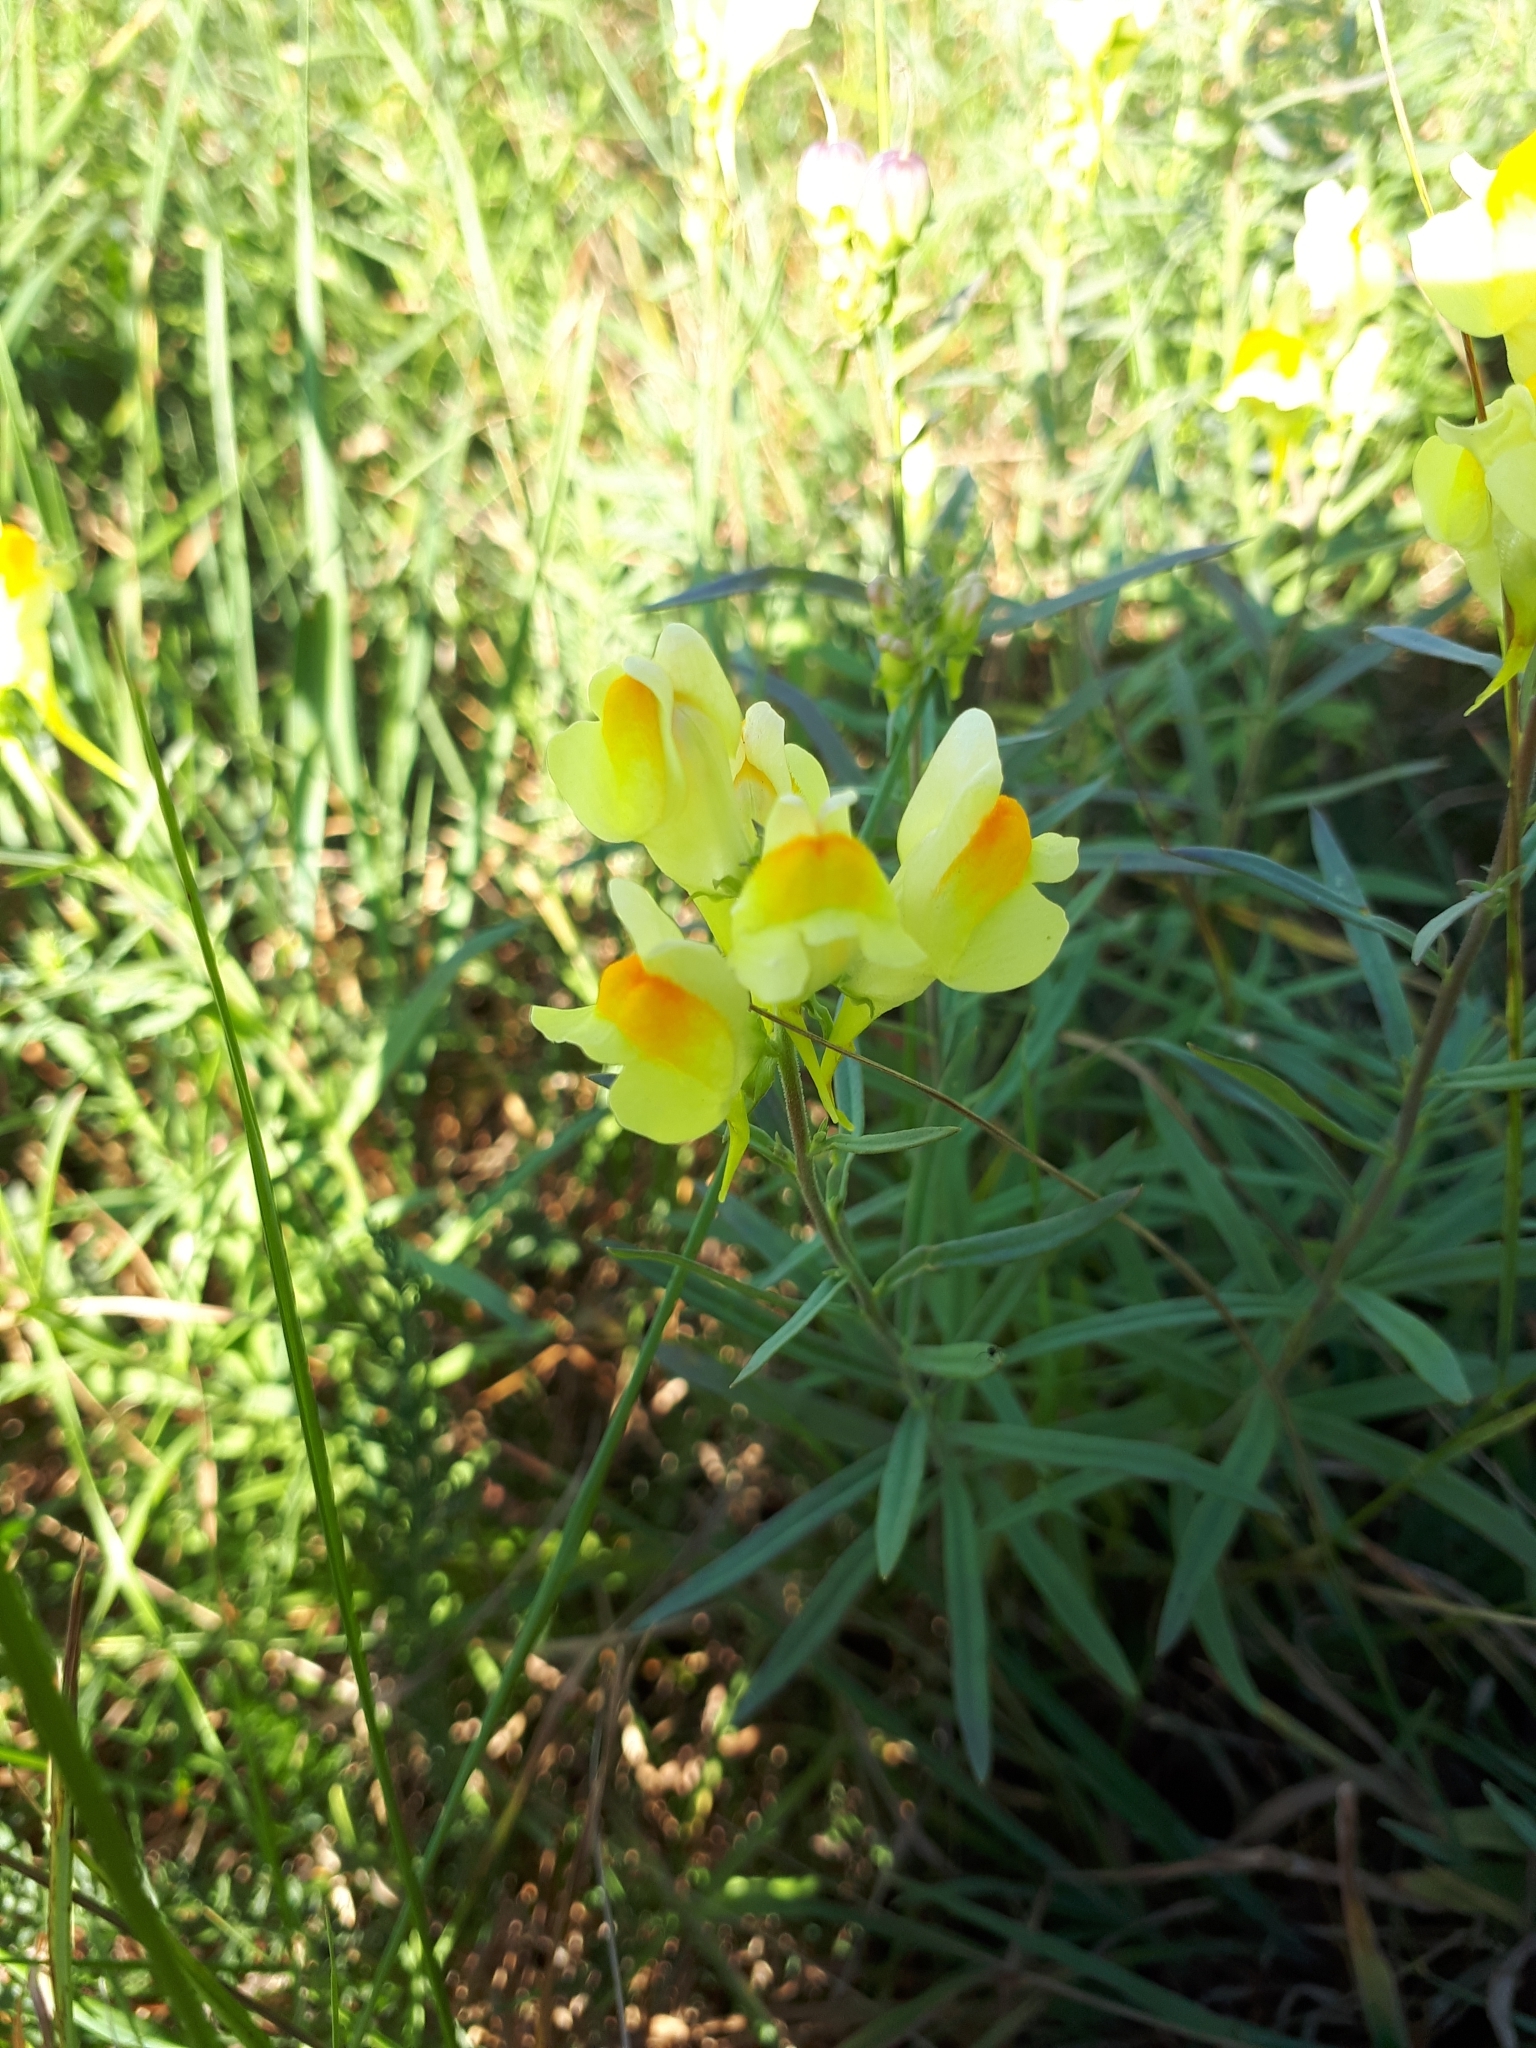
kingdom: Plantae
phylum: Tracheophyta
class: Magnoliopsida
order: Lamiales
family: Plantaginaceae
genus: Linaria
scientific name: Linaria vulgaris
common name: Butter and eggs
